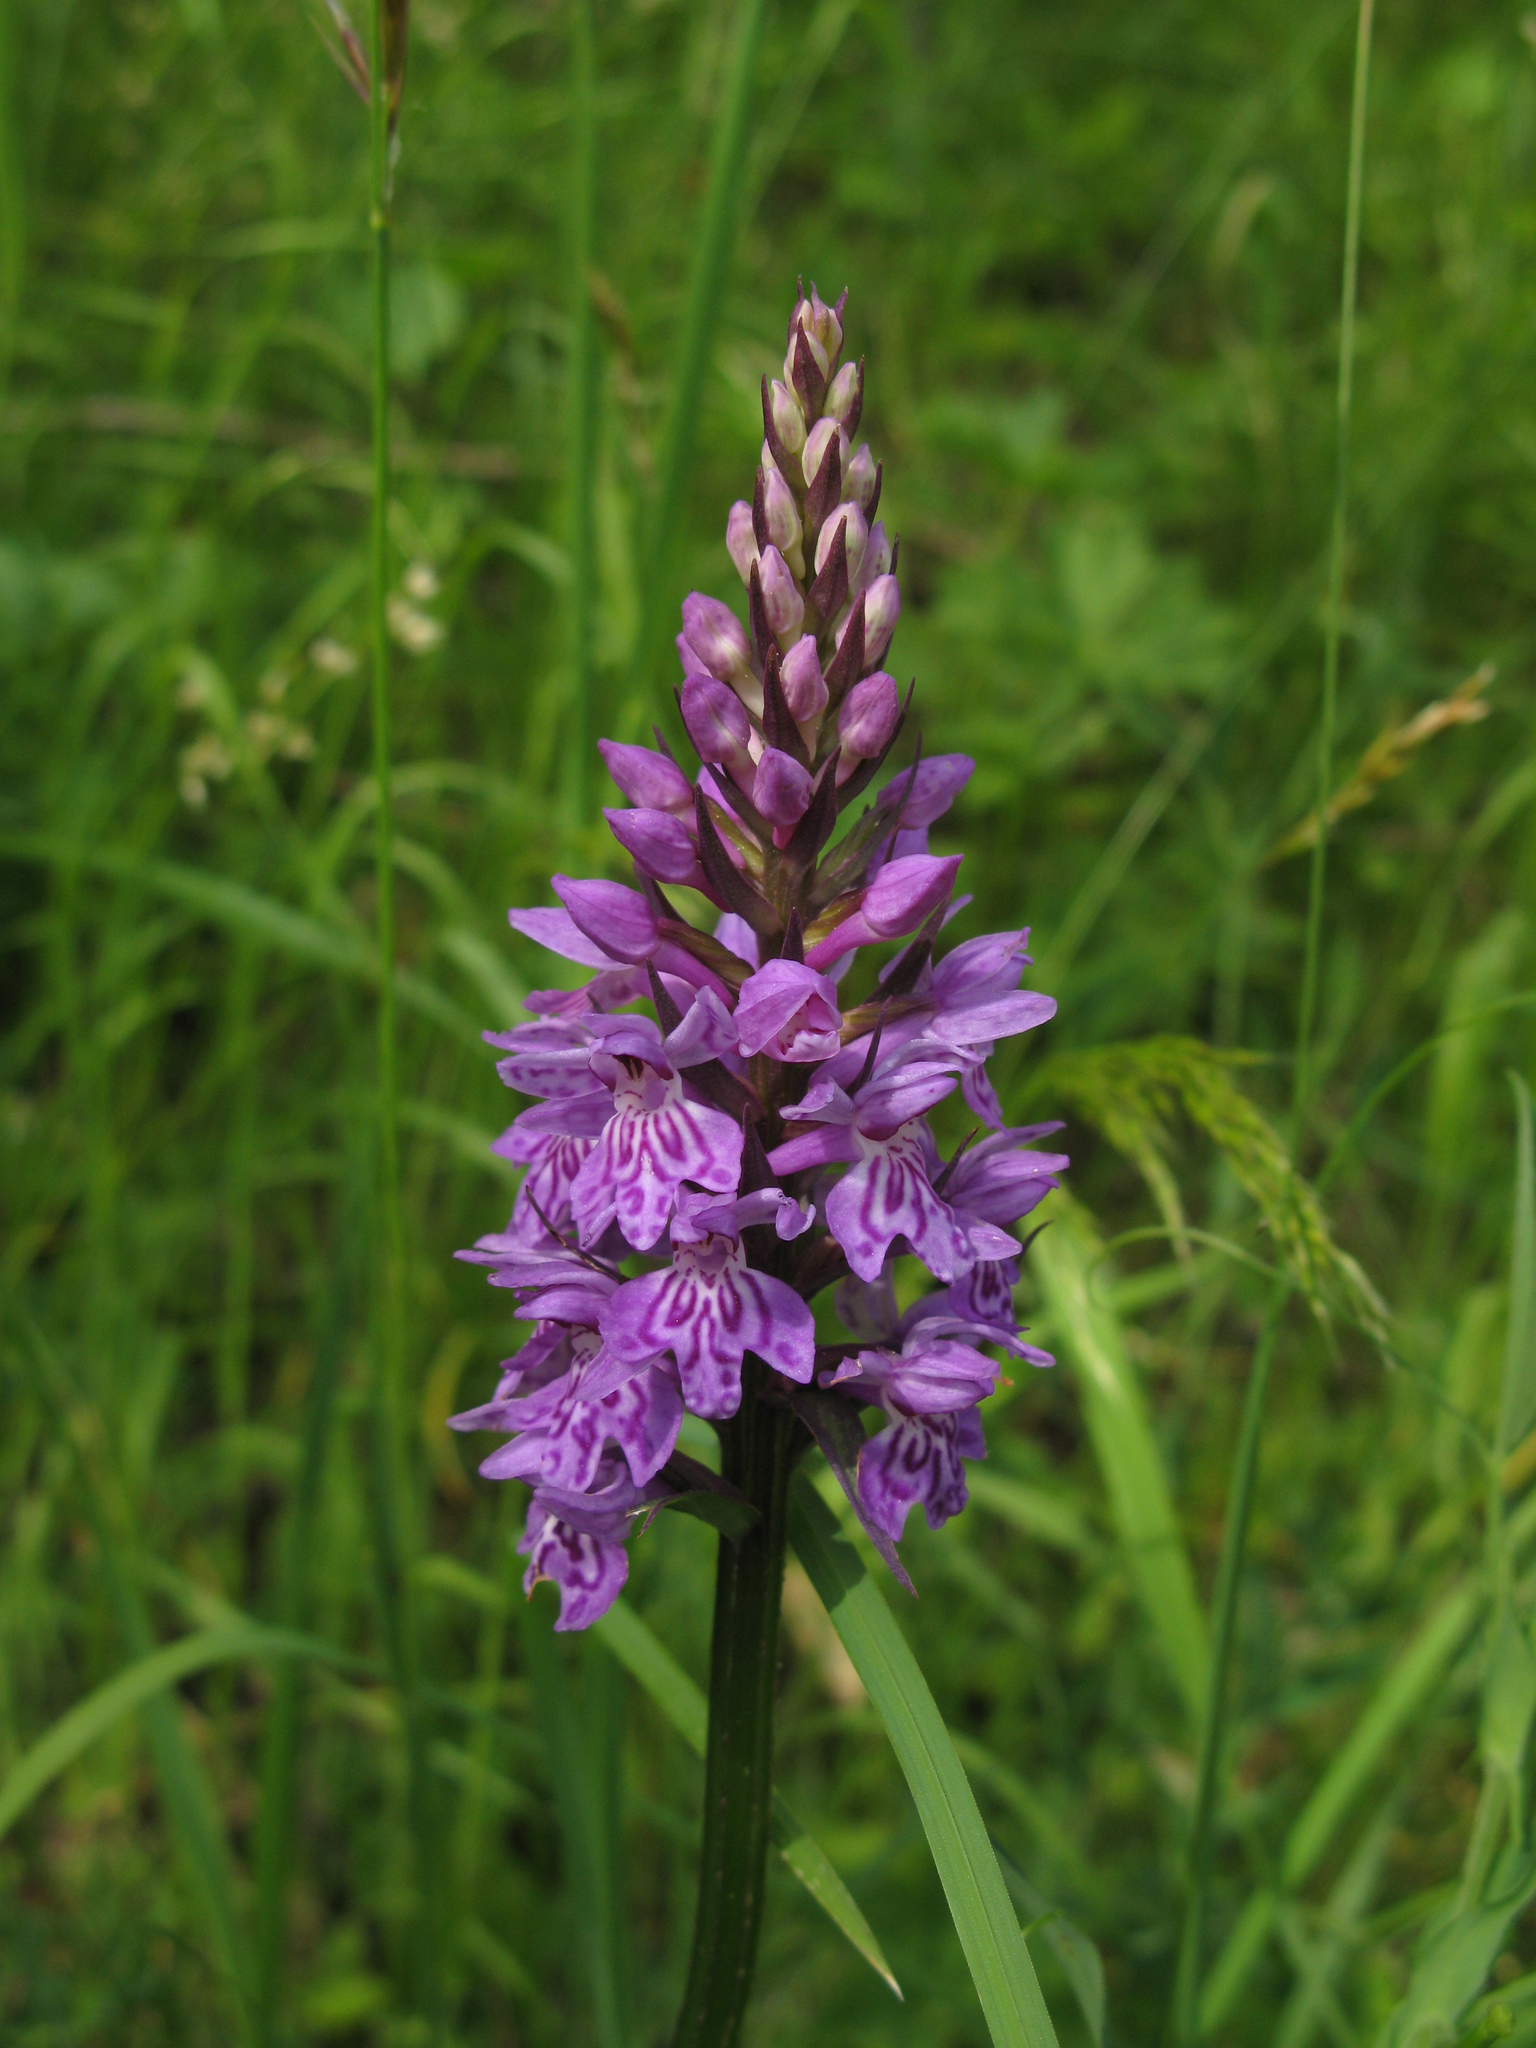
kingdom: Plantae
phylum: Tracheophyta
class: Liliopsida
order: Asparagales
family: Orchidaceae
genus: Dactylorhiza
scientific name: Dactylorhiza maculata
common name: Heath spotted-orchid
